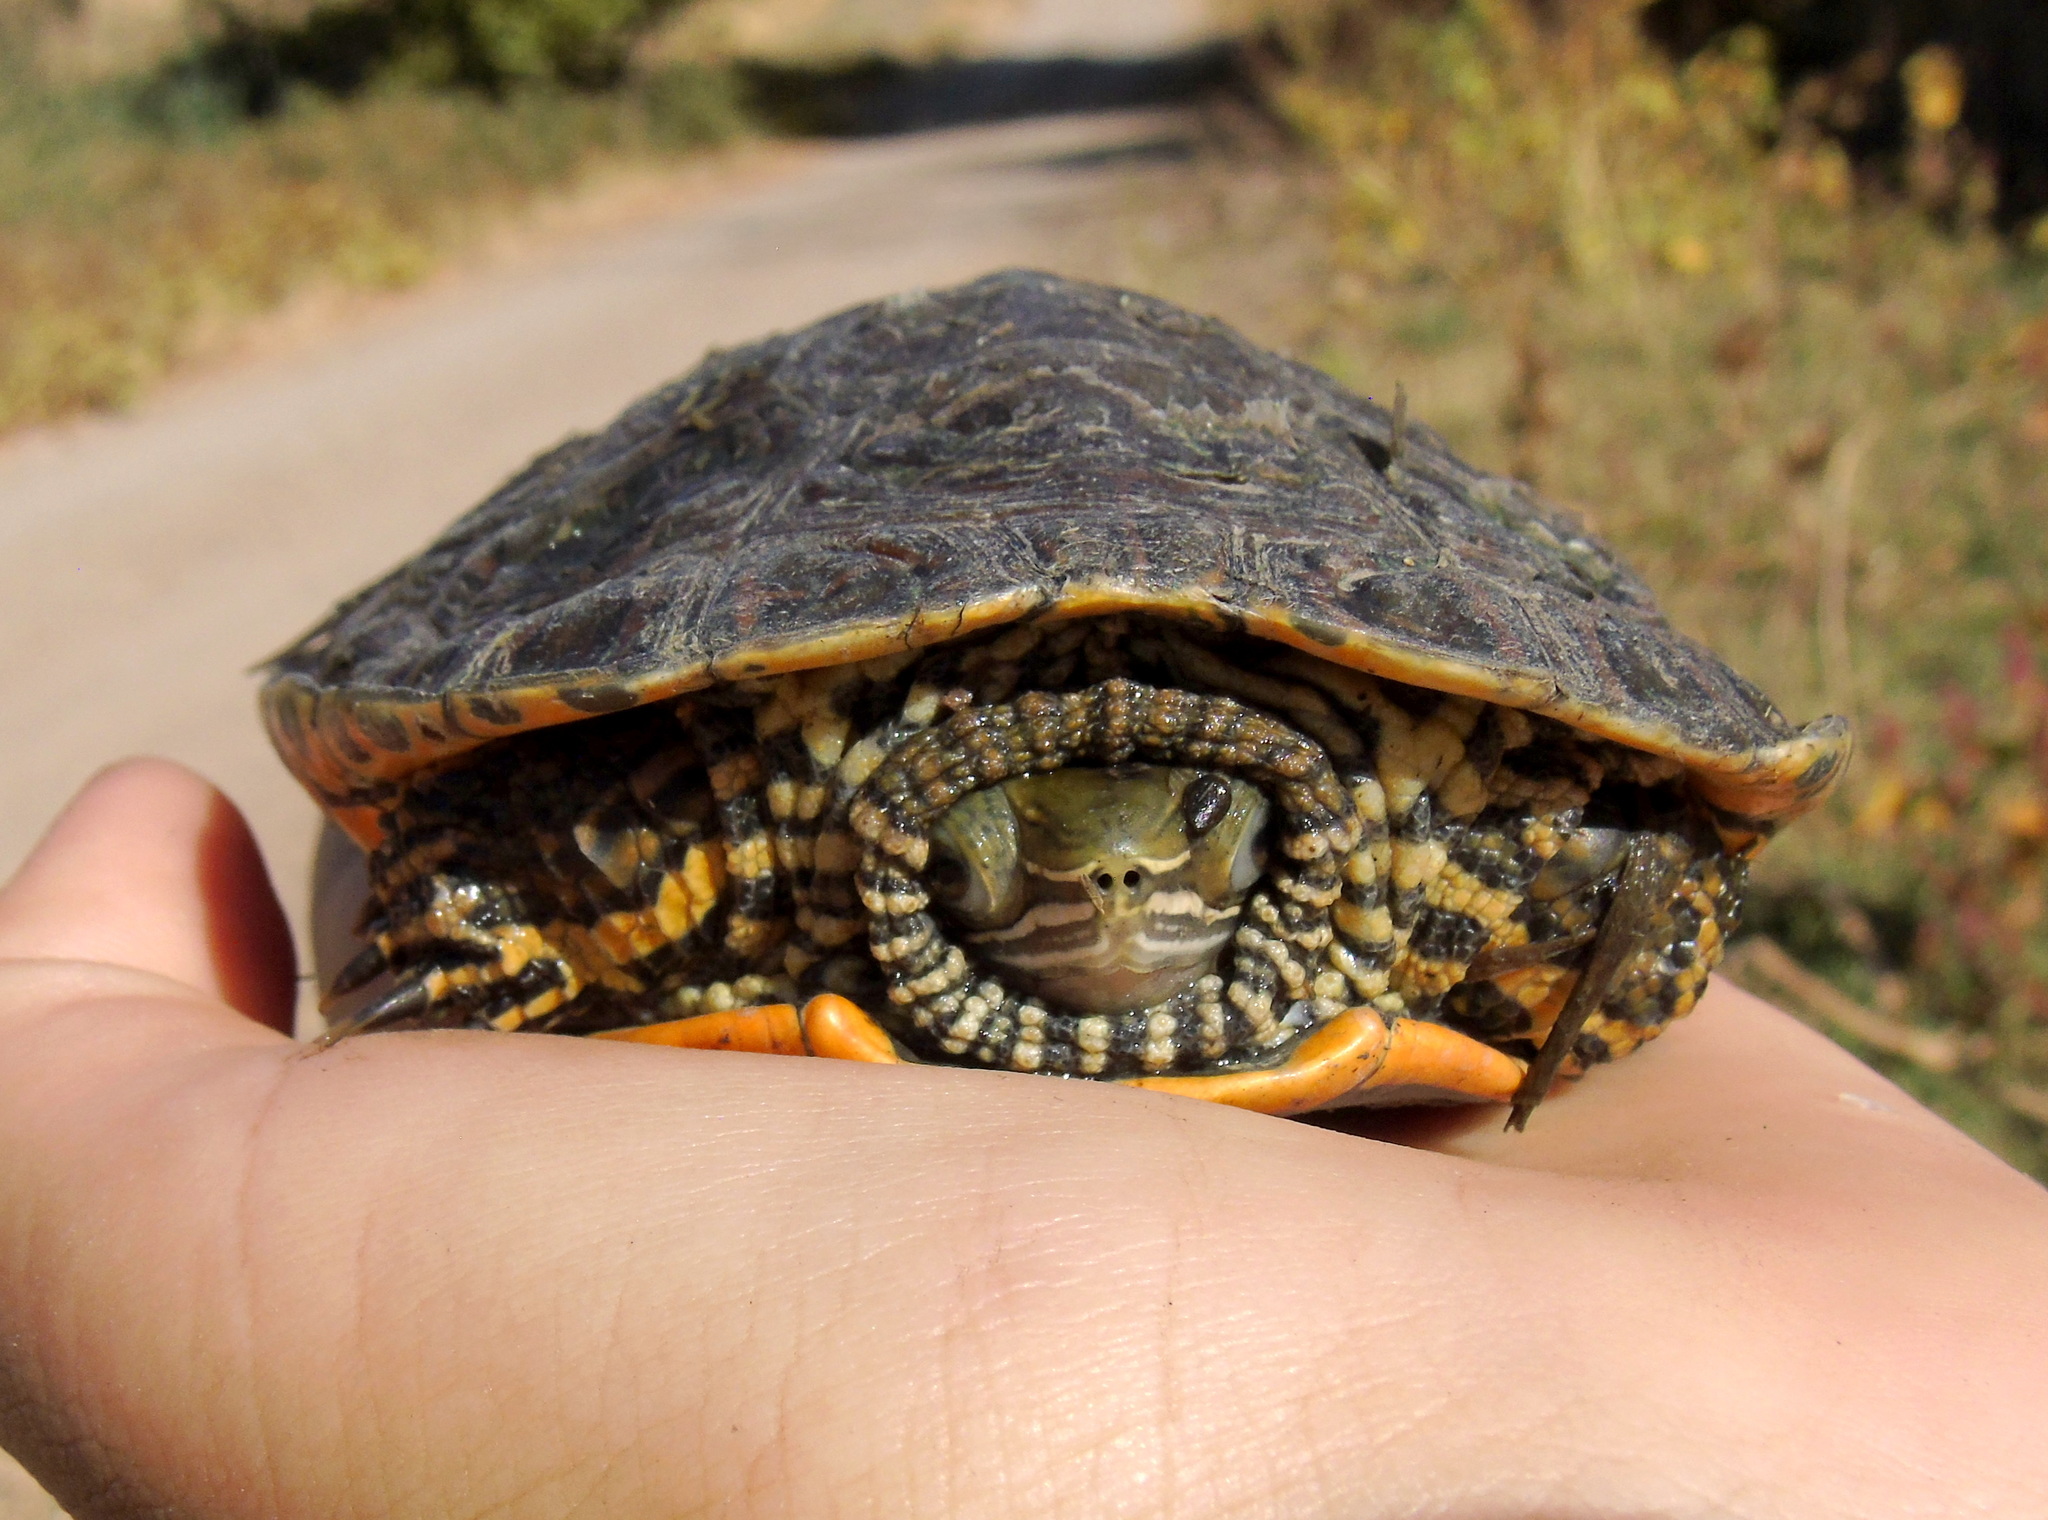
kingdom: Animalia
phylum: Chordata
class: Testudines
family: Geoemydidae
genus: Mauremys
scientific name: Mauremys caspica
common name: Caspian turtle
